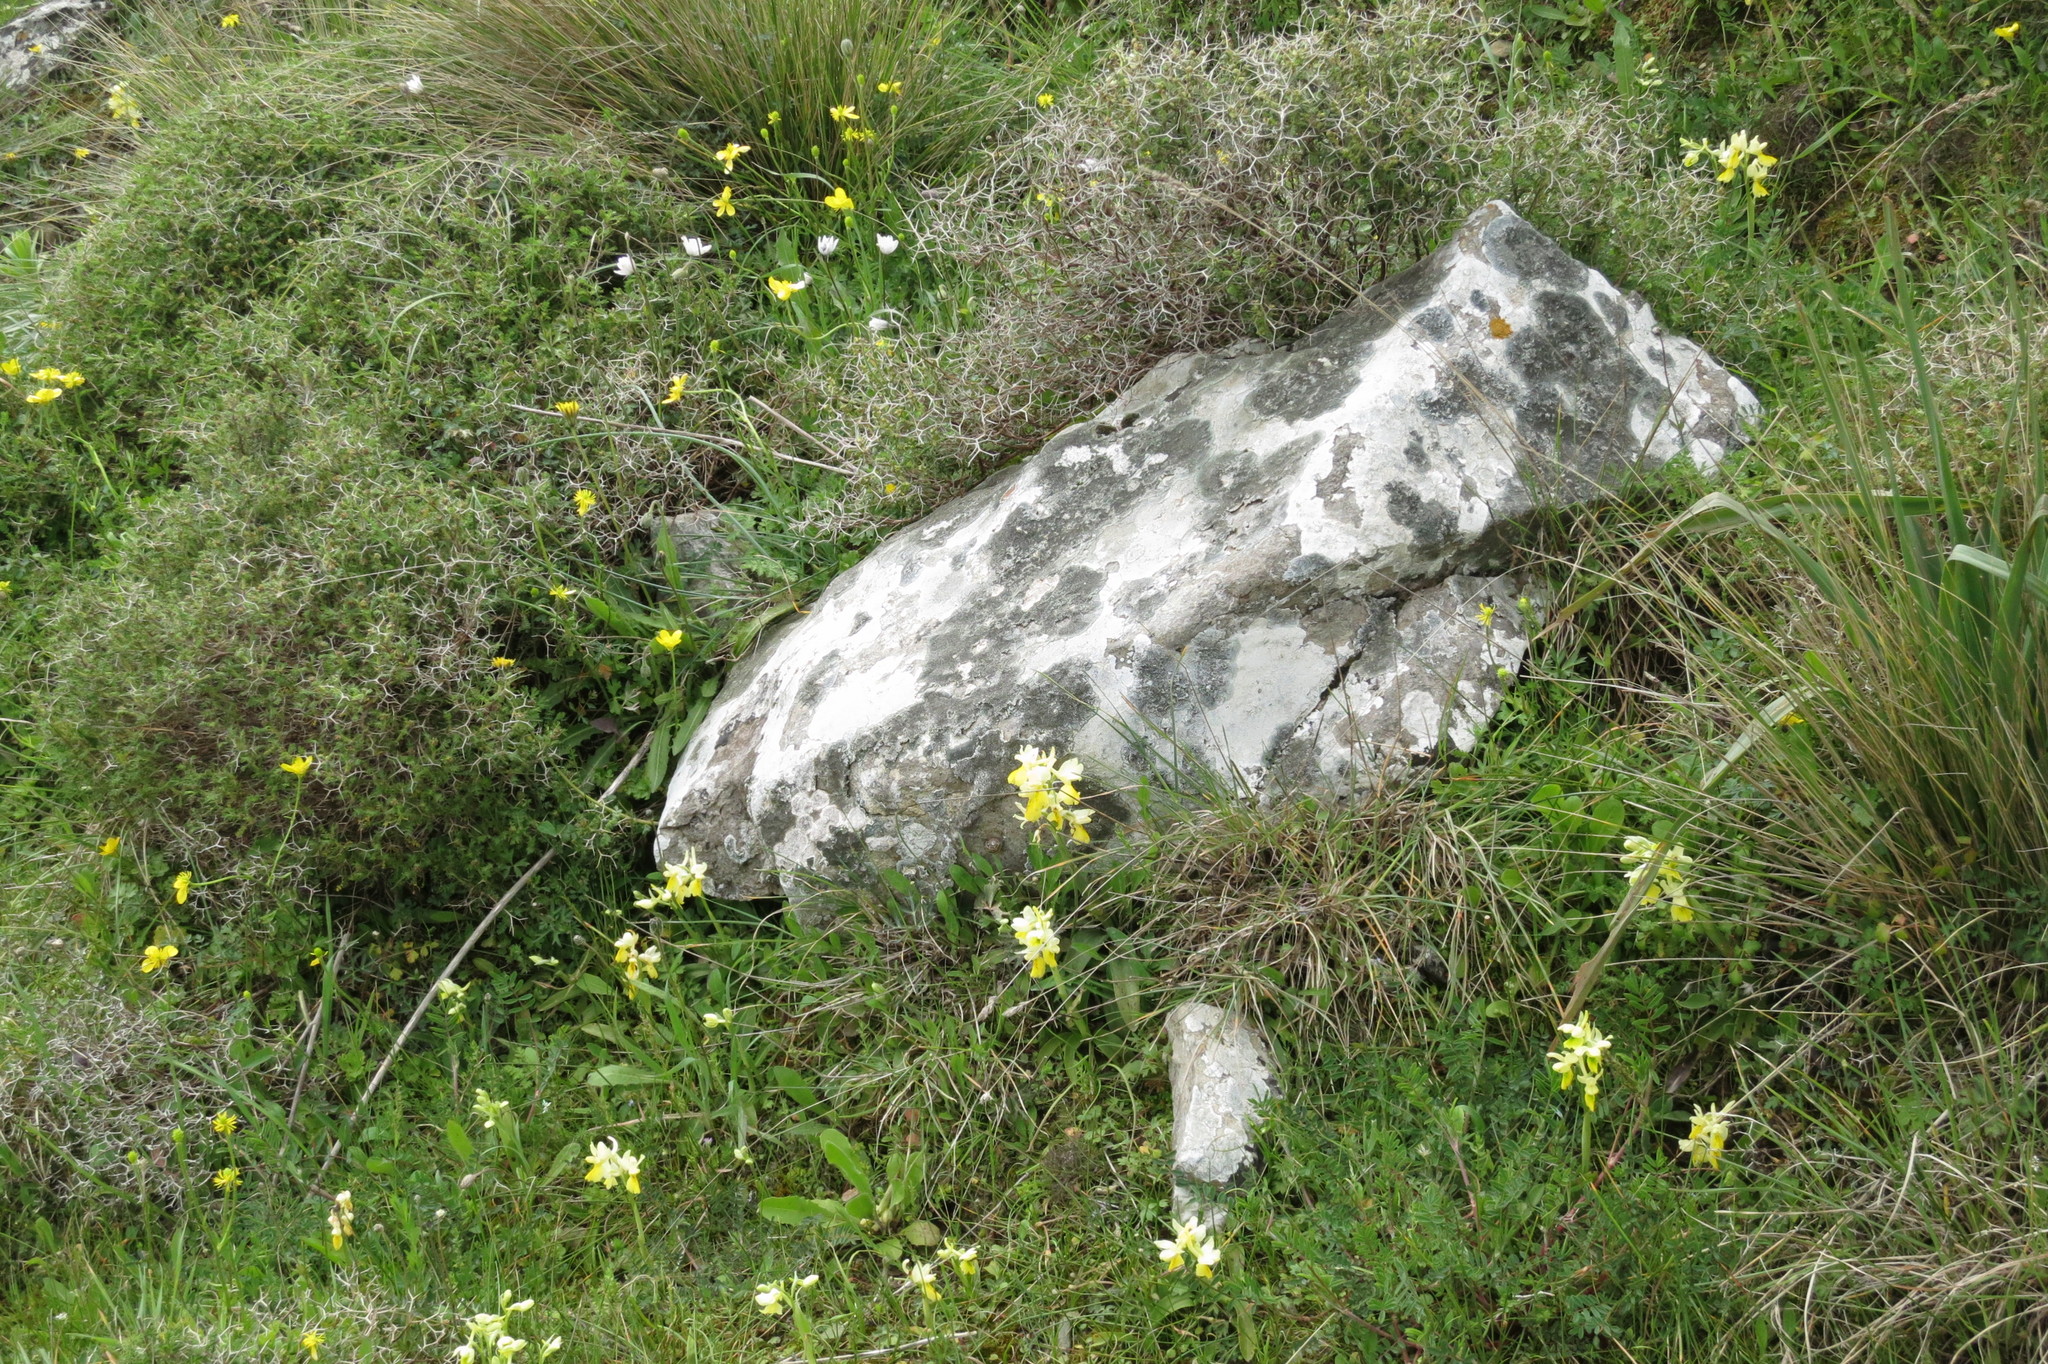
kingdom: Plantae
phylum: Tracheophyta
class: Liliopsida
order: Asparagales
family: Orchidaceae
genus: Orchis
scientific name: Orchis pauciflora
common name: Few-flowered orchid
